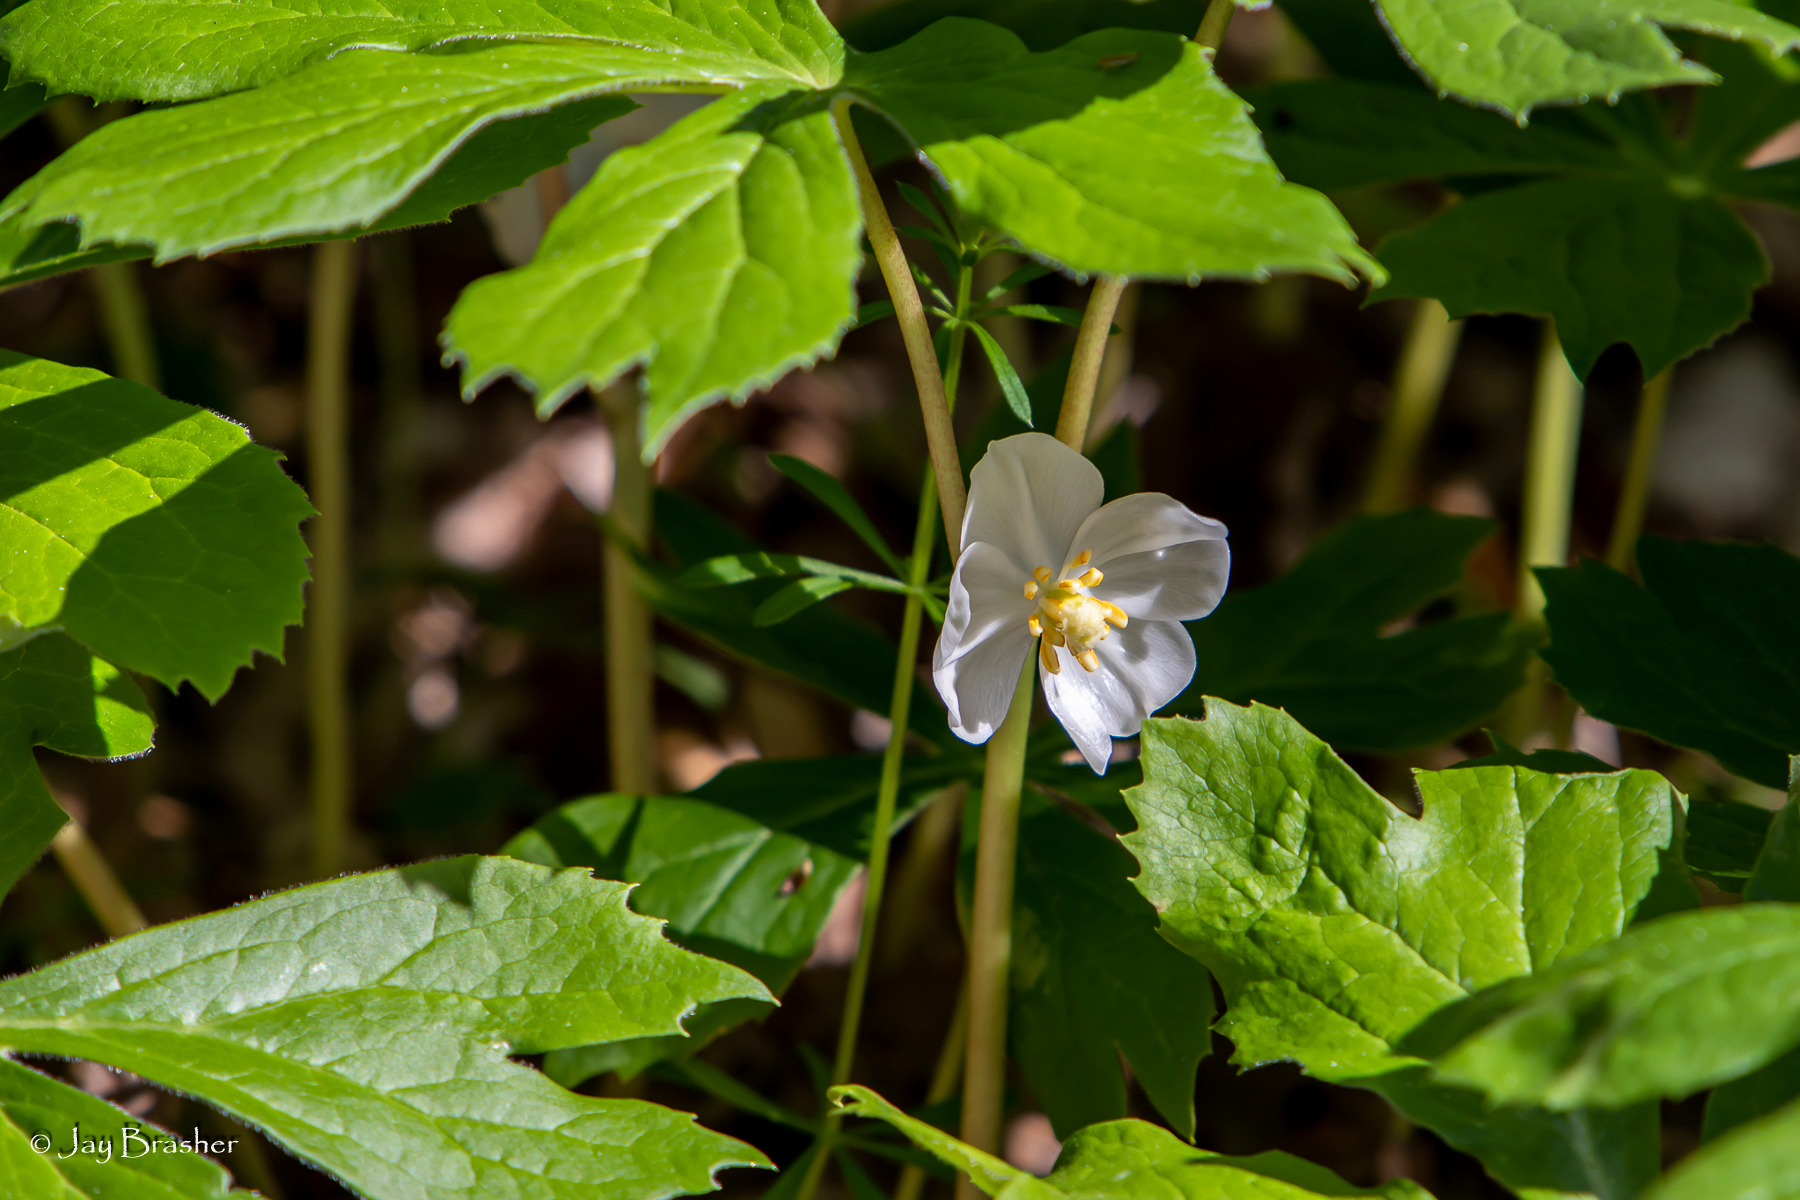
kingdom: Plantae
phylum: Tracheophyta
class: Magnoliopsida
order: Ranunculales
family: Berberidaceae
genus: Podophyllum
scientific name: Podophyllum peltatum
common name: Wild mandrake
